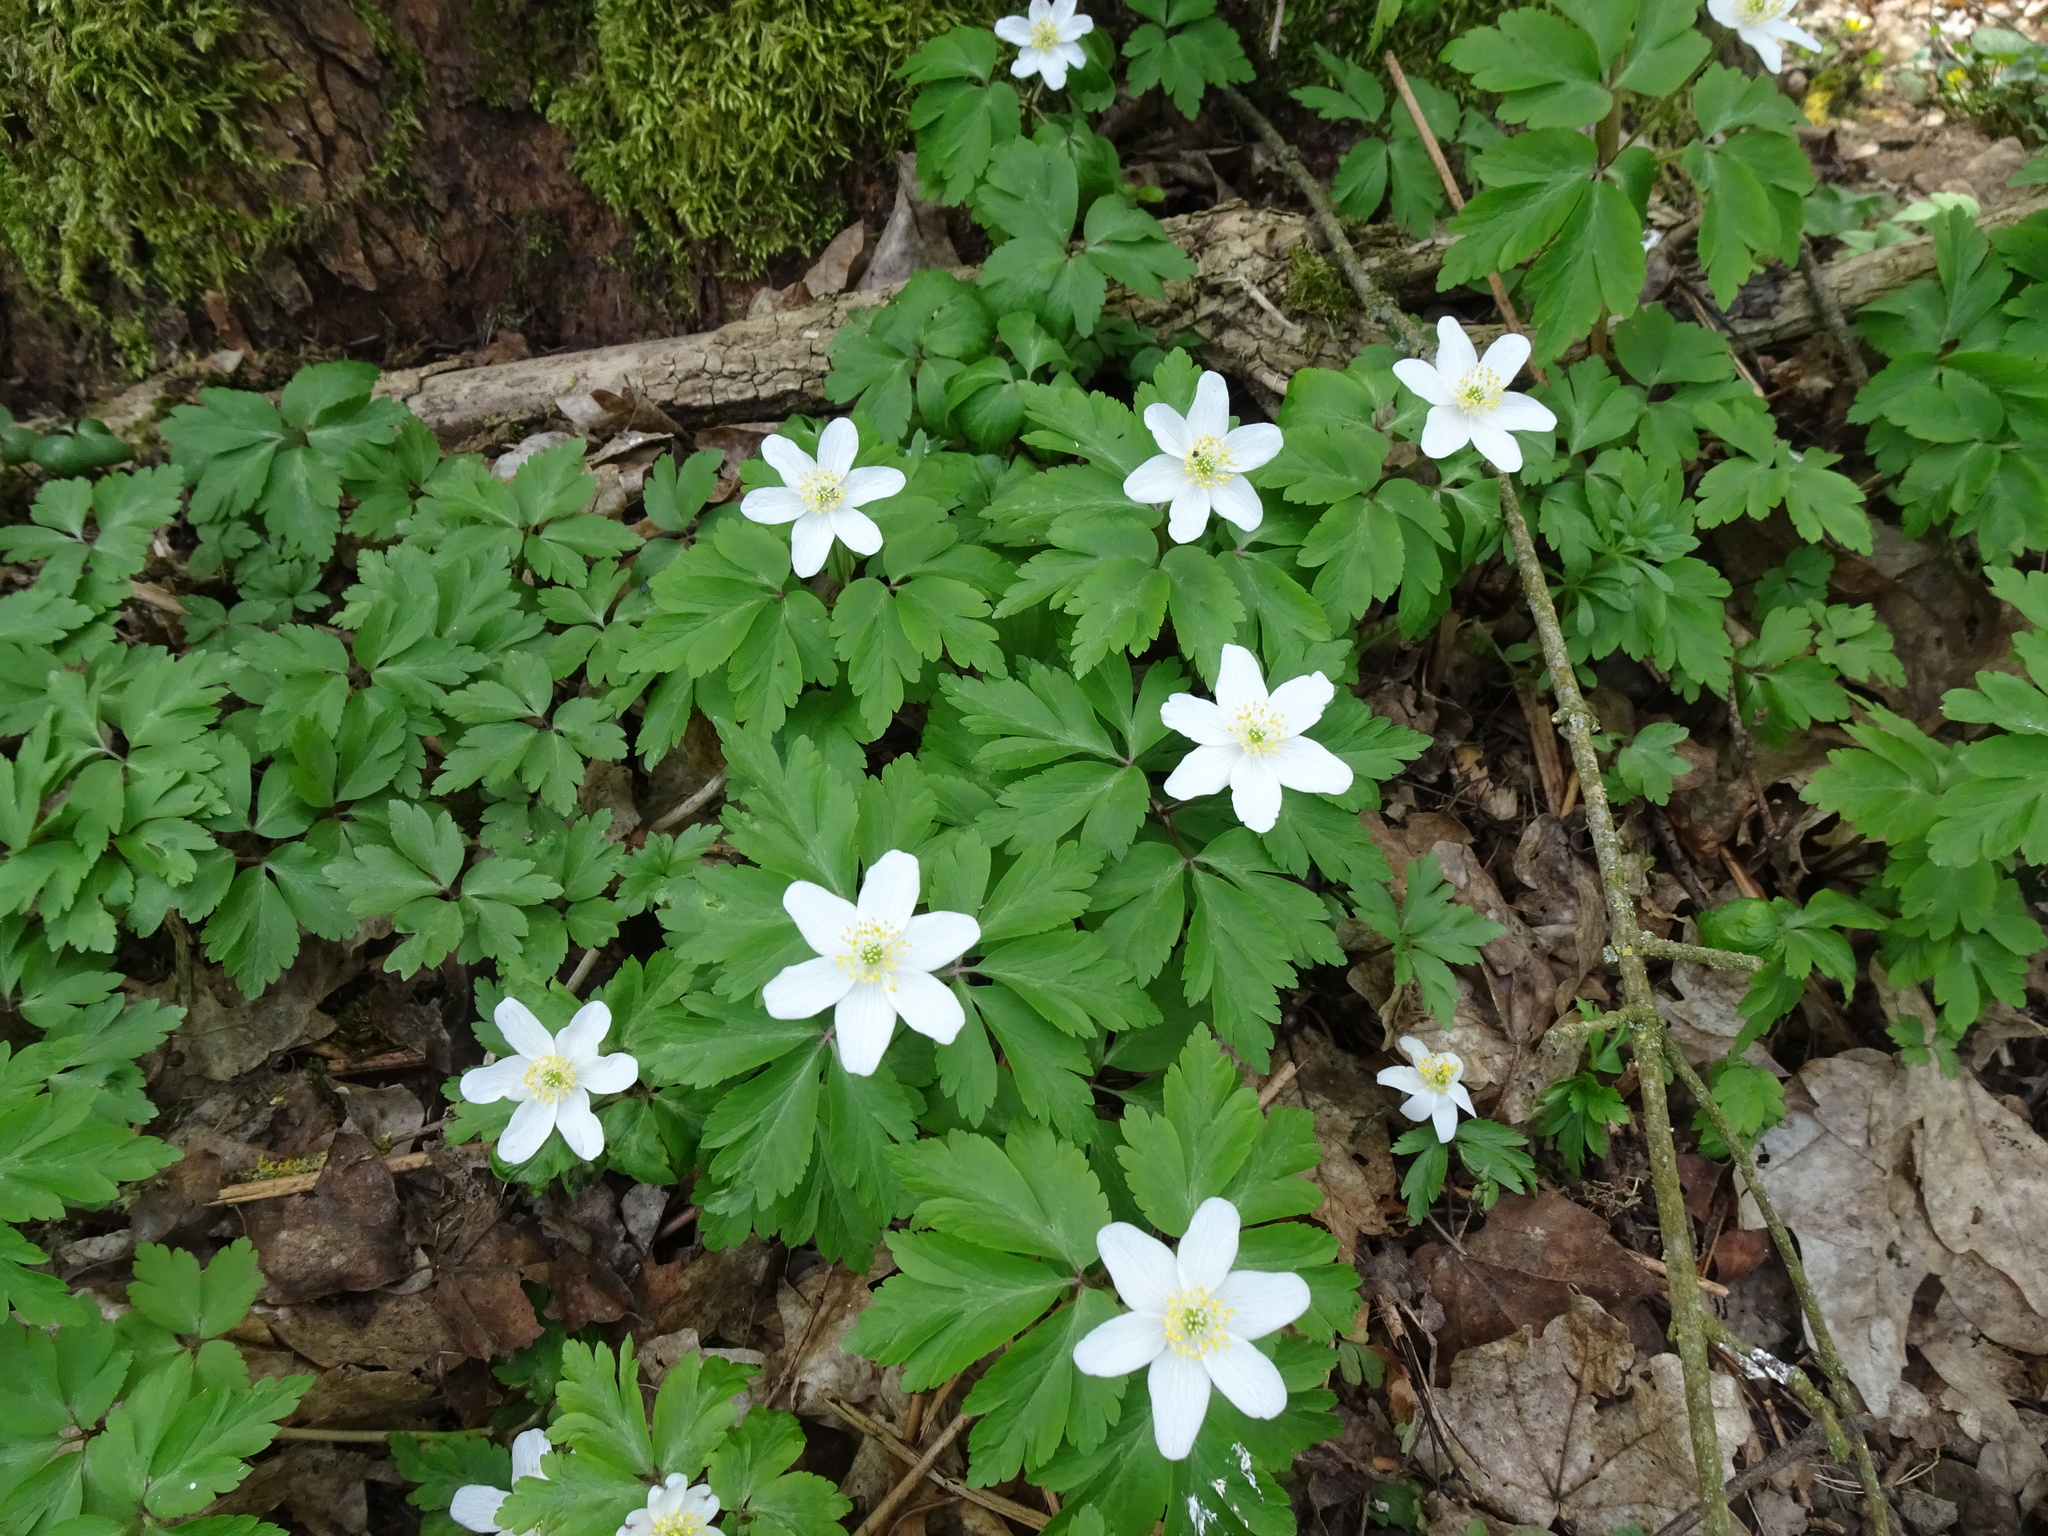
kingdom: Plantae
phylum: Tracheophyta
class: Magnoliopsida
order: Ranunculales
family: Ranunculaceae
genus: Anemone
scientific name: Anemone nemorosa
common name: Wood anemone
